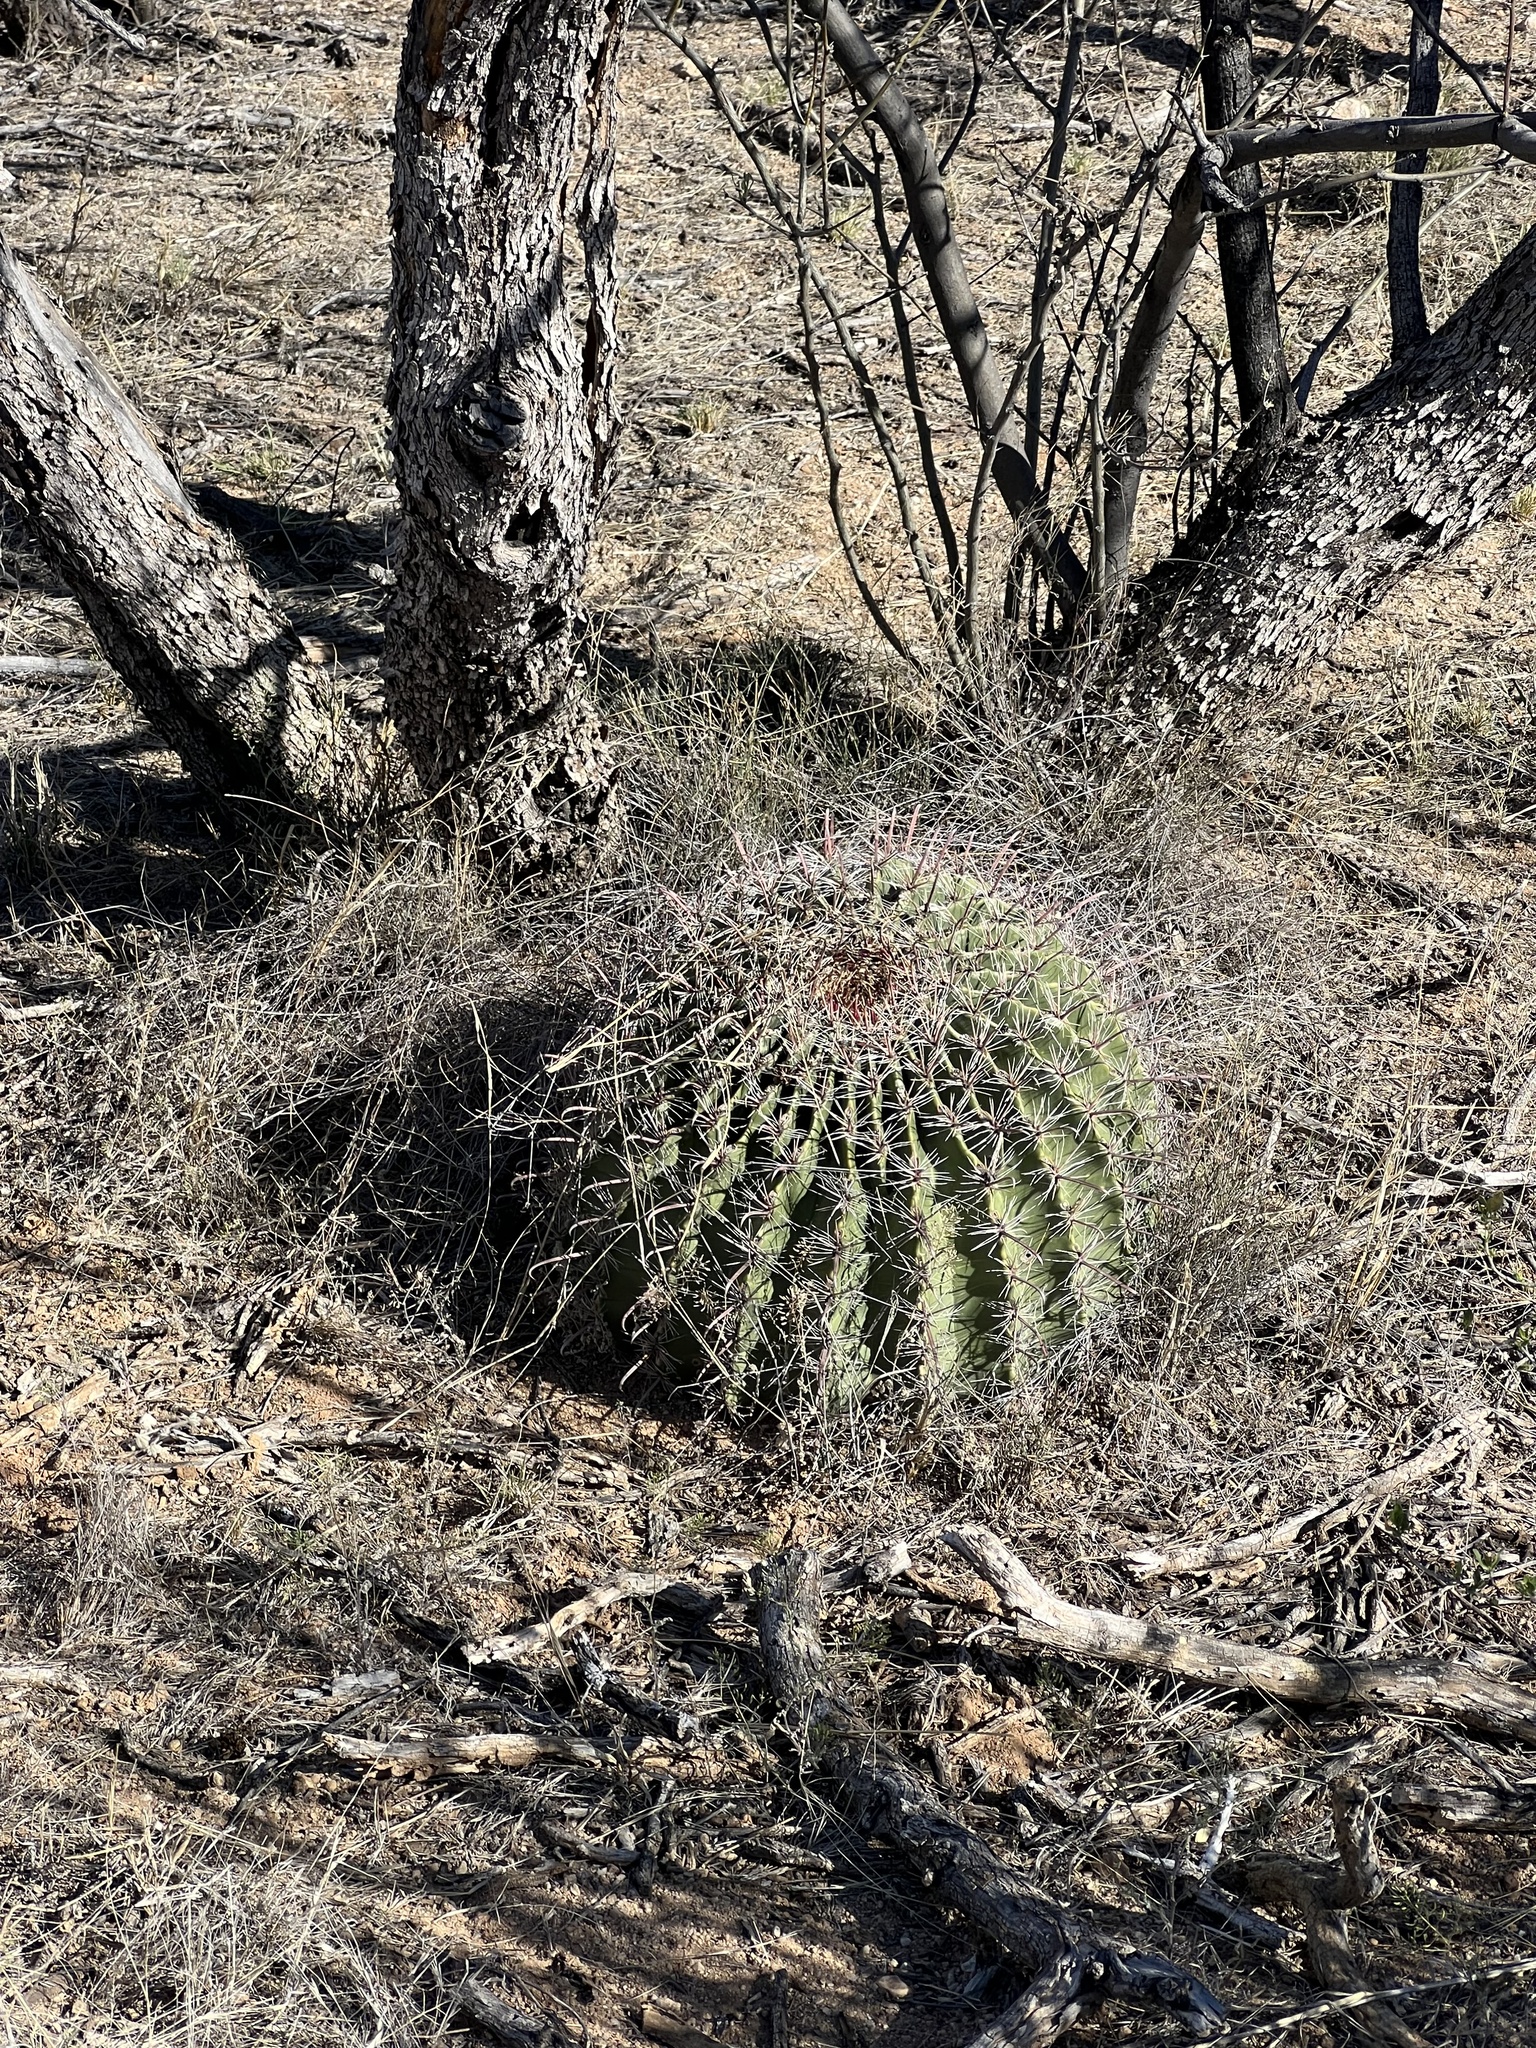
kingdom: Plantae
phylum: Tracheophyta
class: Magnoliopsida
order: Caryophyllales
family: Cactaceae
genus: Ferocactus
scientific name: Ferocactus wislizeni
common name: Candy barrel cactus
